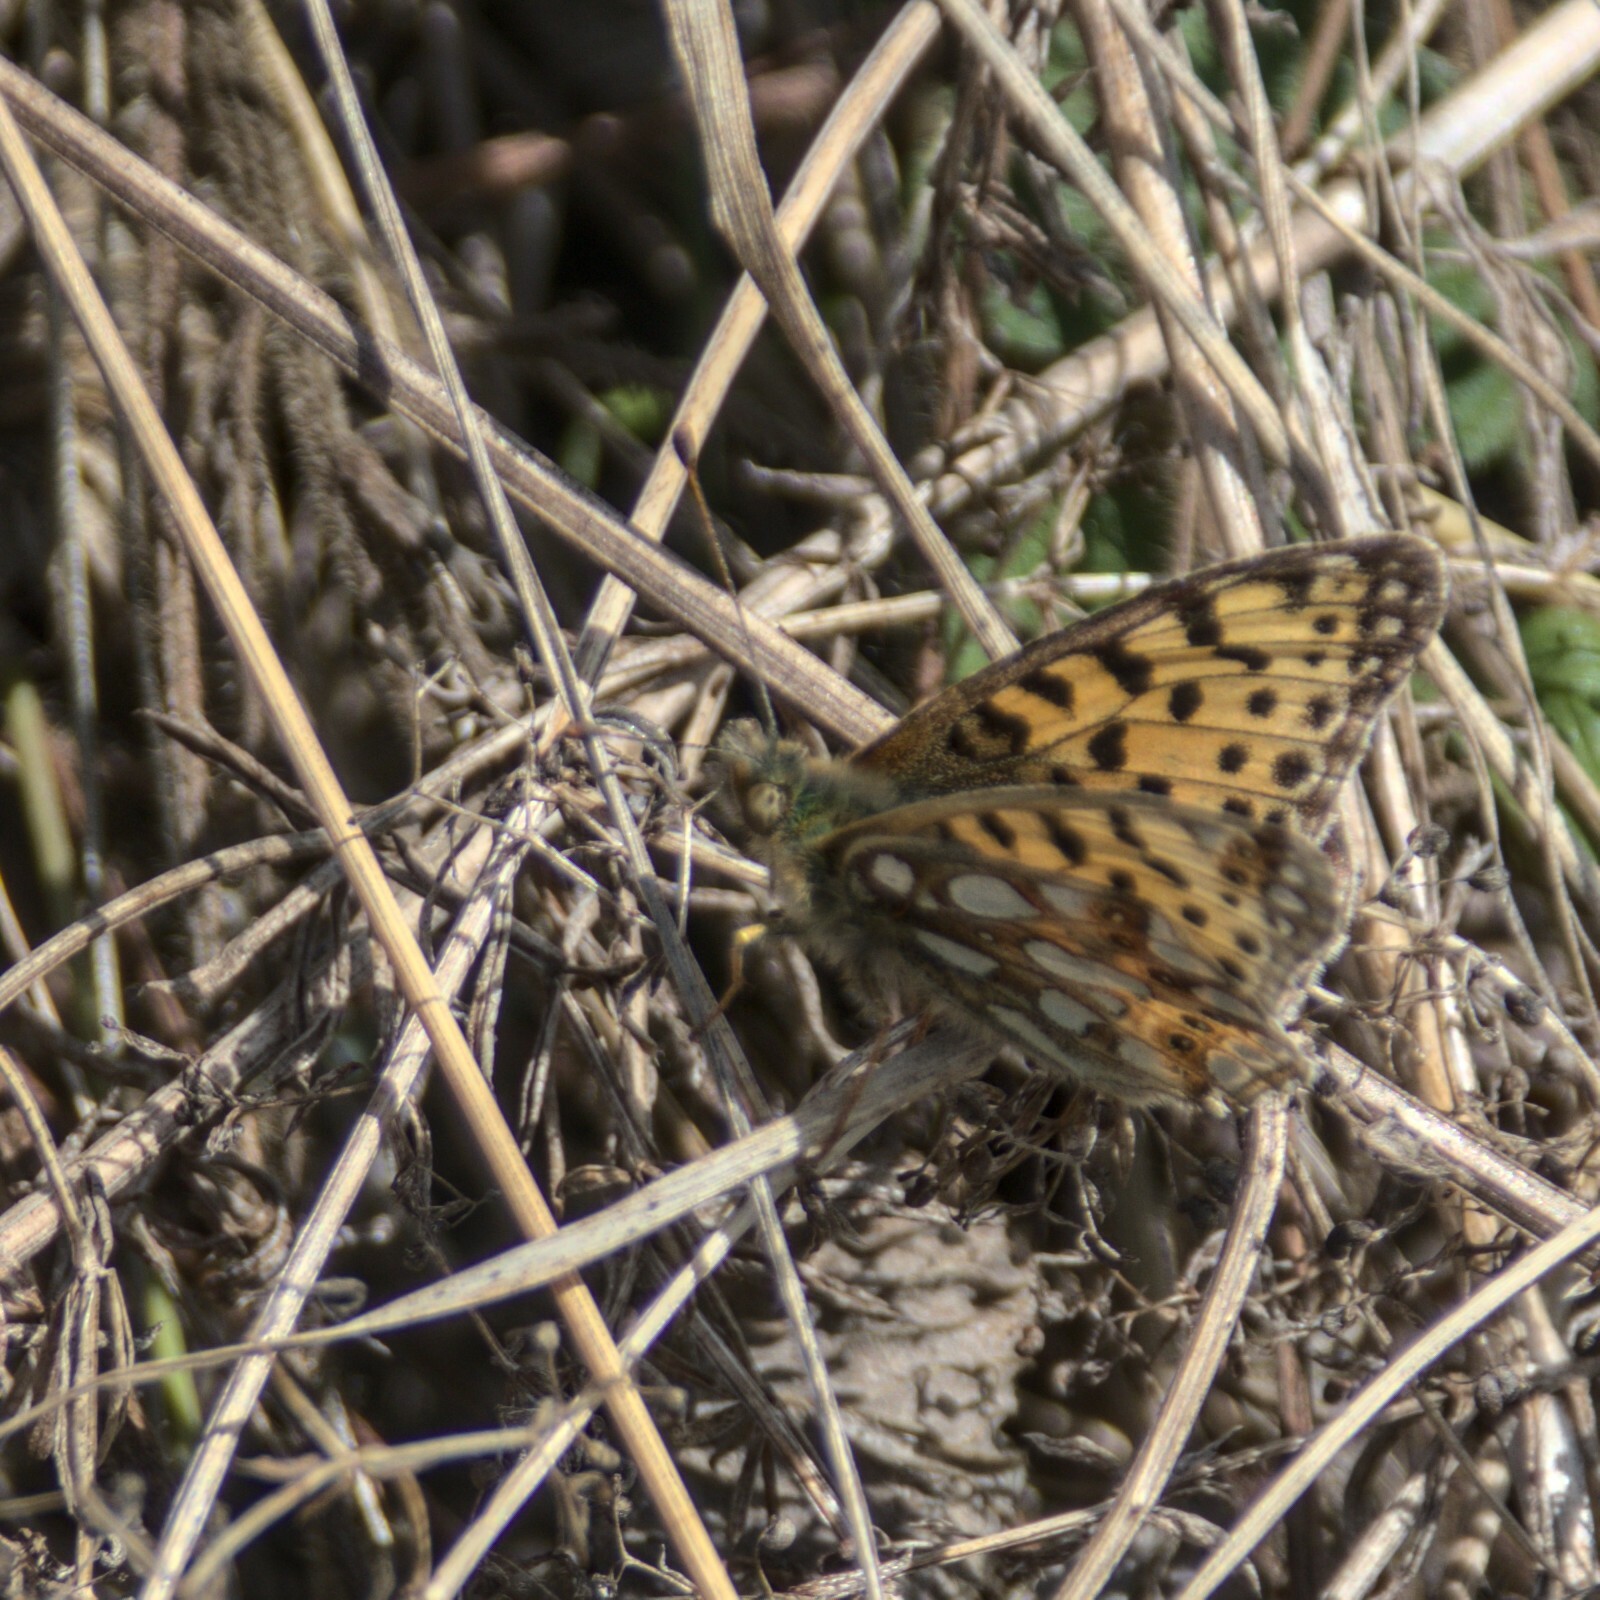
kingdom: Animalia
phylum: Arthropoda
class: Insecta
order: Lepidoptera
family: Nymphalidae
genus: Issoria
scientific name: Issoria lathonia
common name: Queen of spain fritillary
